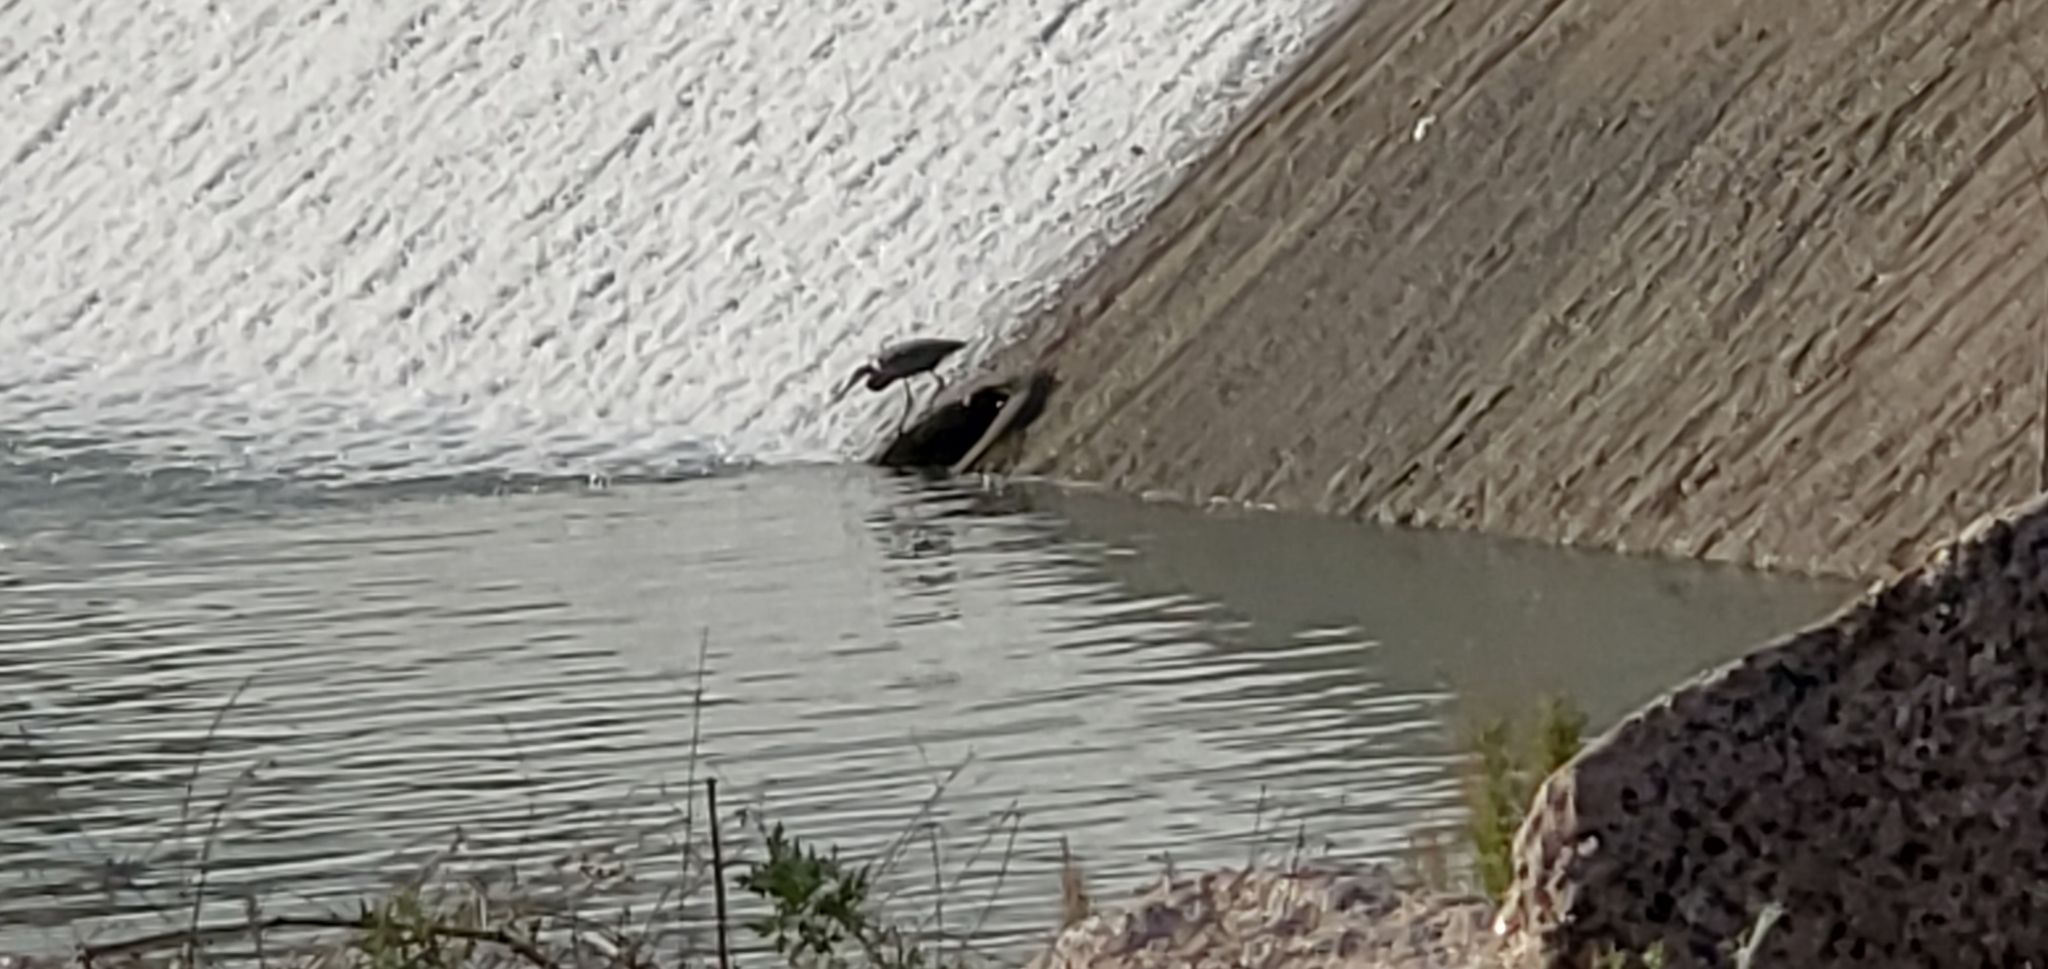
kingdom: Animalia
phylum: Chordata
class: Aves
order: Pelecaniformes
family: Ardeidae
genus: Ardea
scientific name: Ardea herodias
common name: Great blue heron
